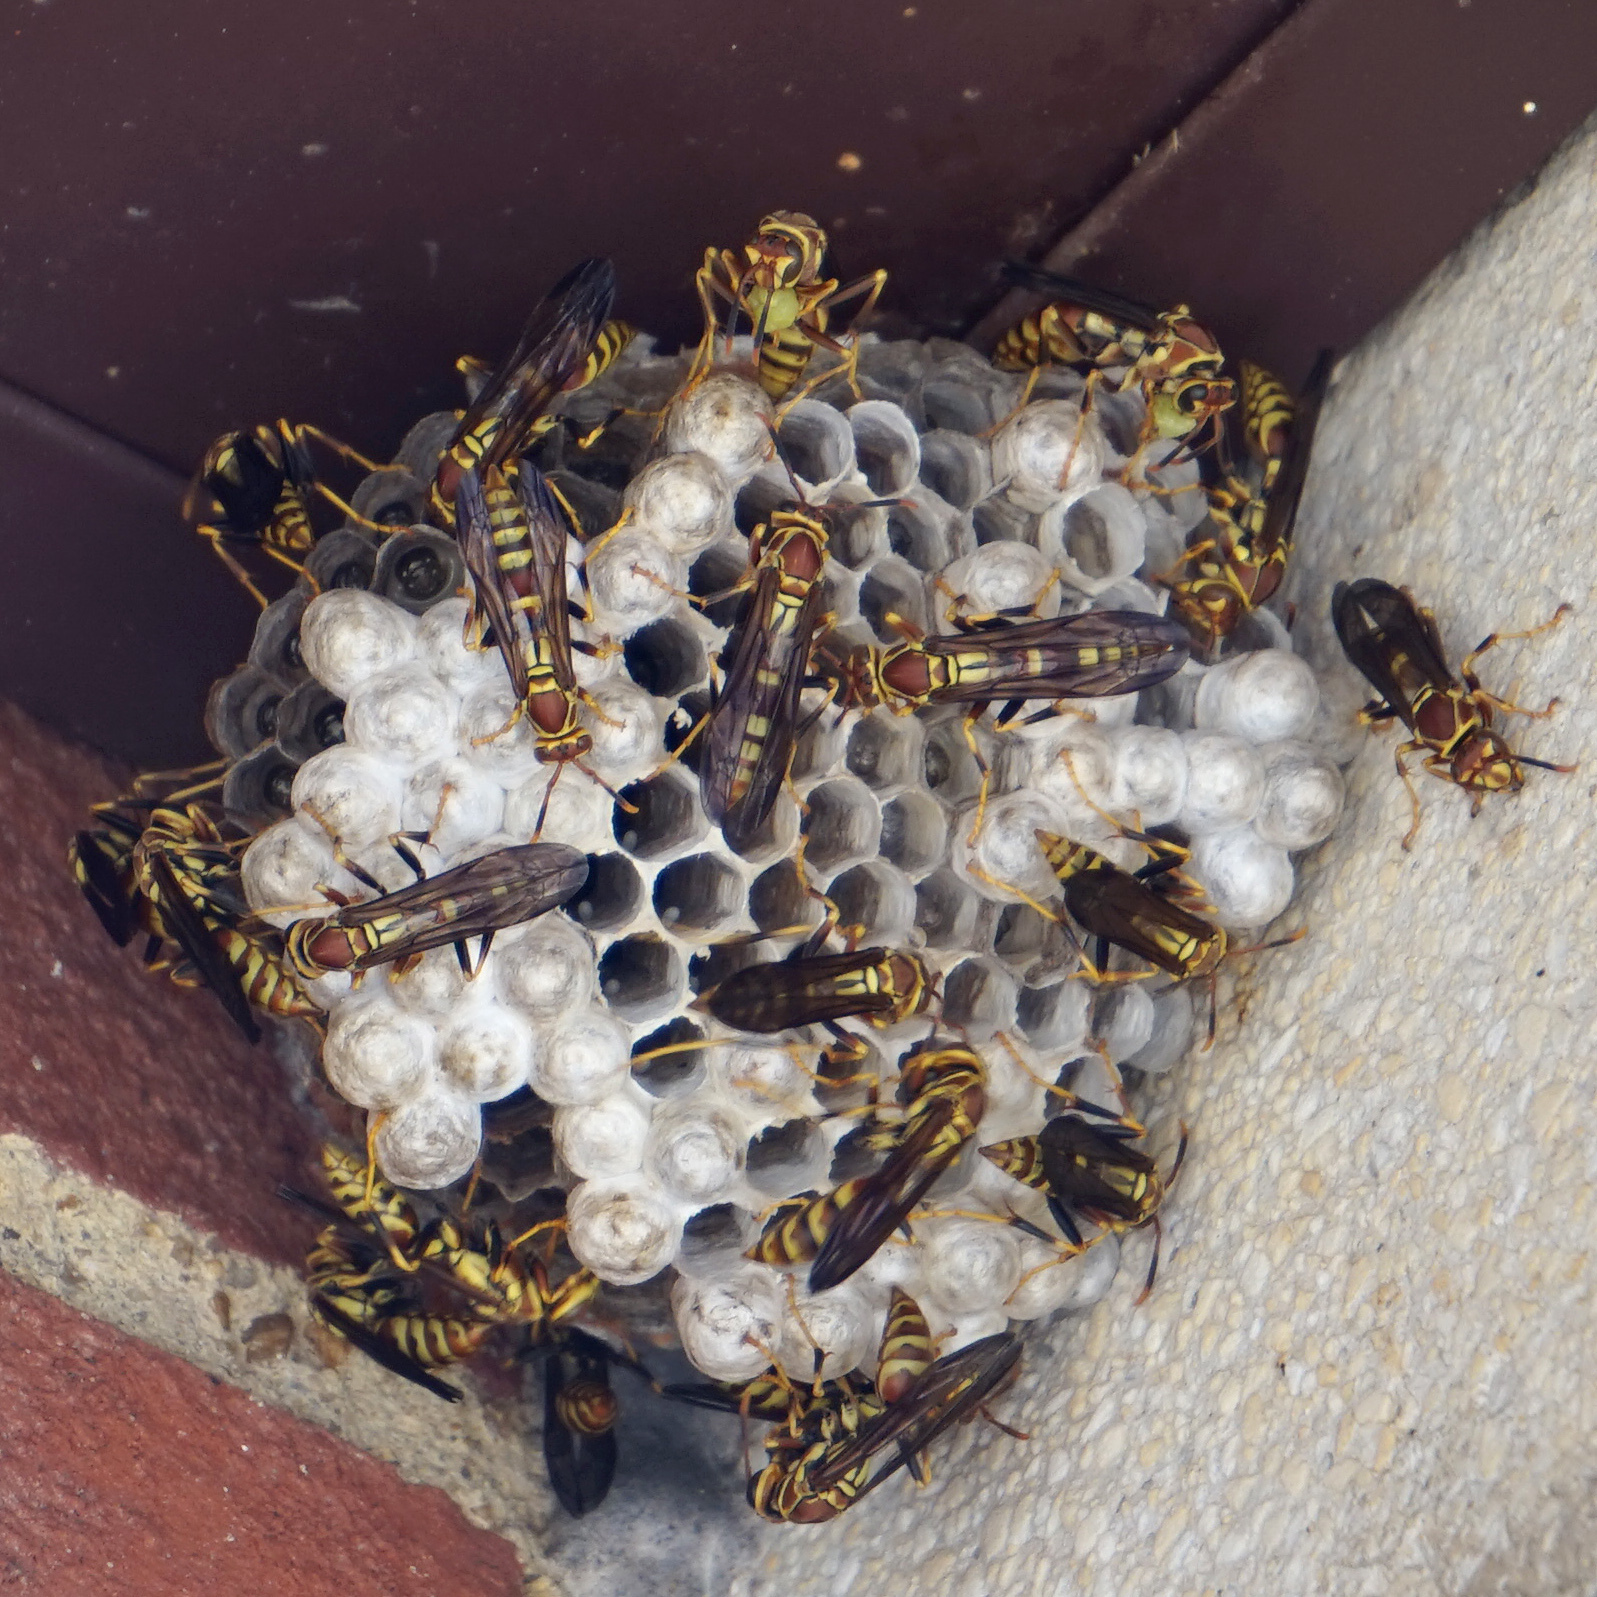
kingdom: Animalia
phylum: Arthropoda
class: Insecta
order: Hymenoptera
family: Eumenidae
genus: Polistes
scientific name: Polistes exclamans
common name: Paper wasp
